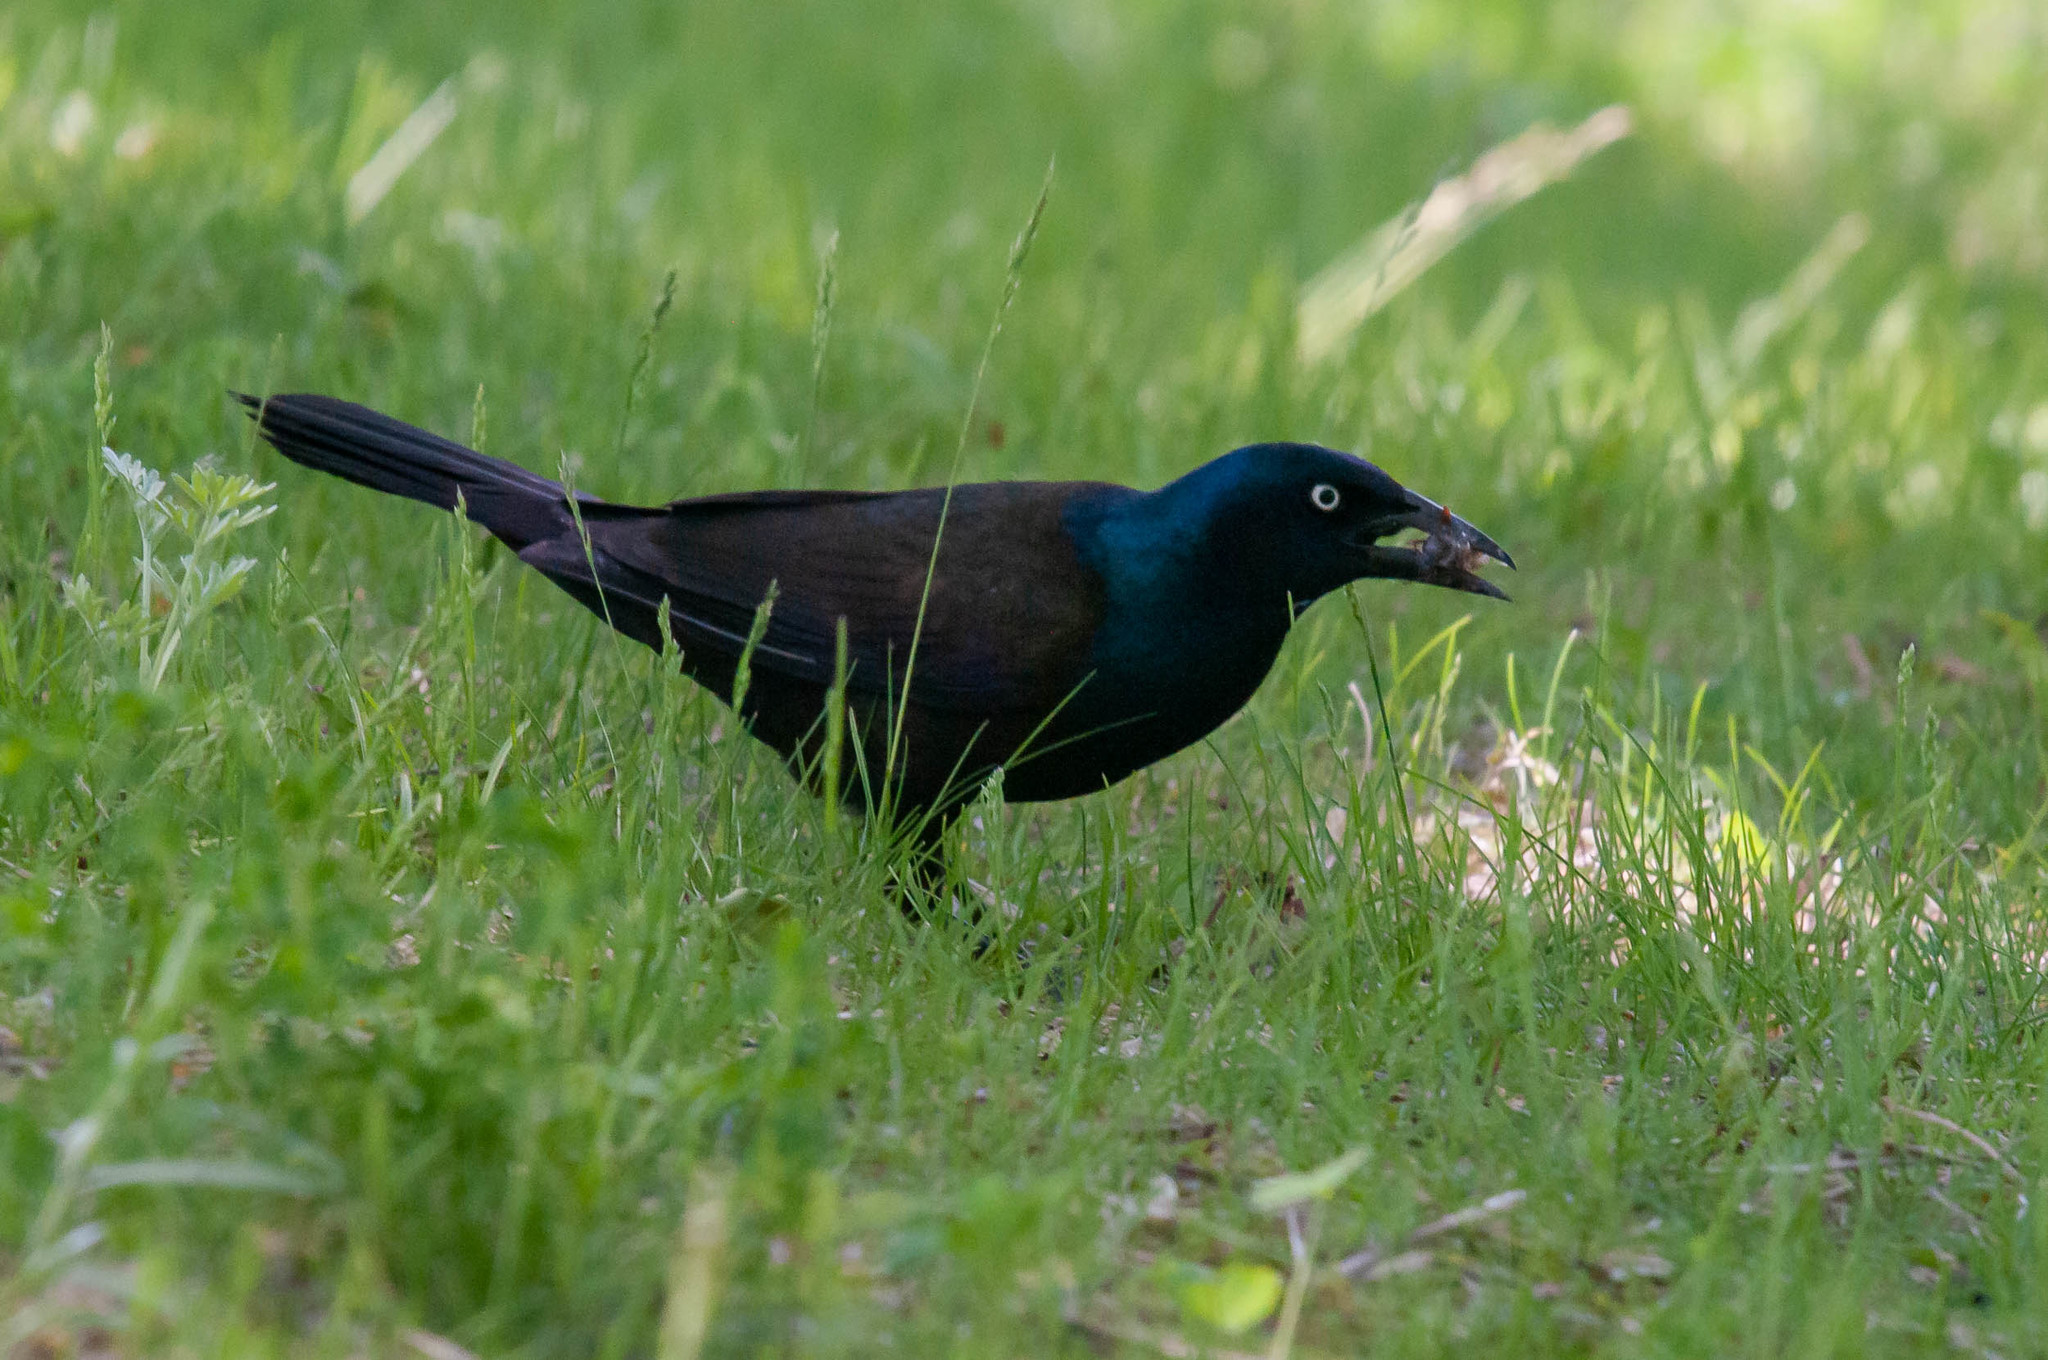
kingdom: Animalia
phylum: Chordata
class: Aves
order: Passeriformes
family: Icteridae
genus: Quiscalus
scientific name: Quiscalus quiscula
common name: Common grackle
